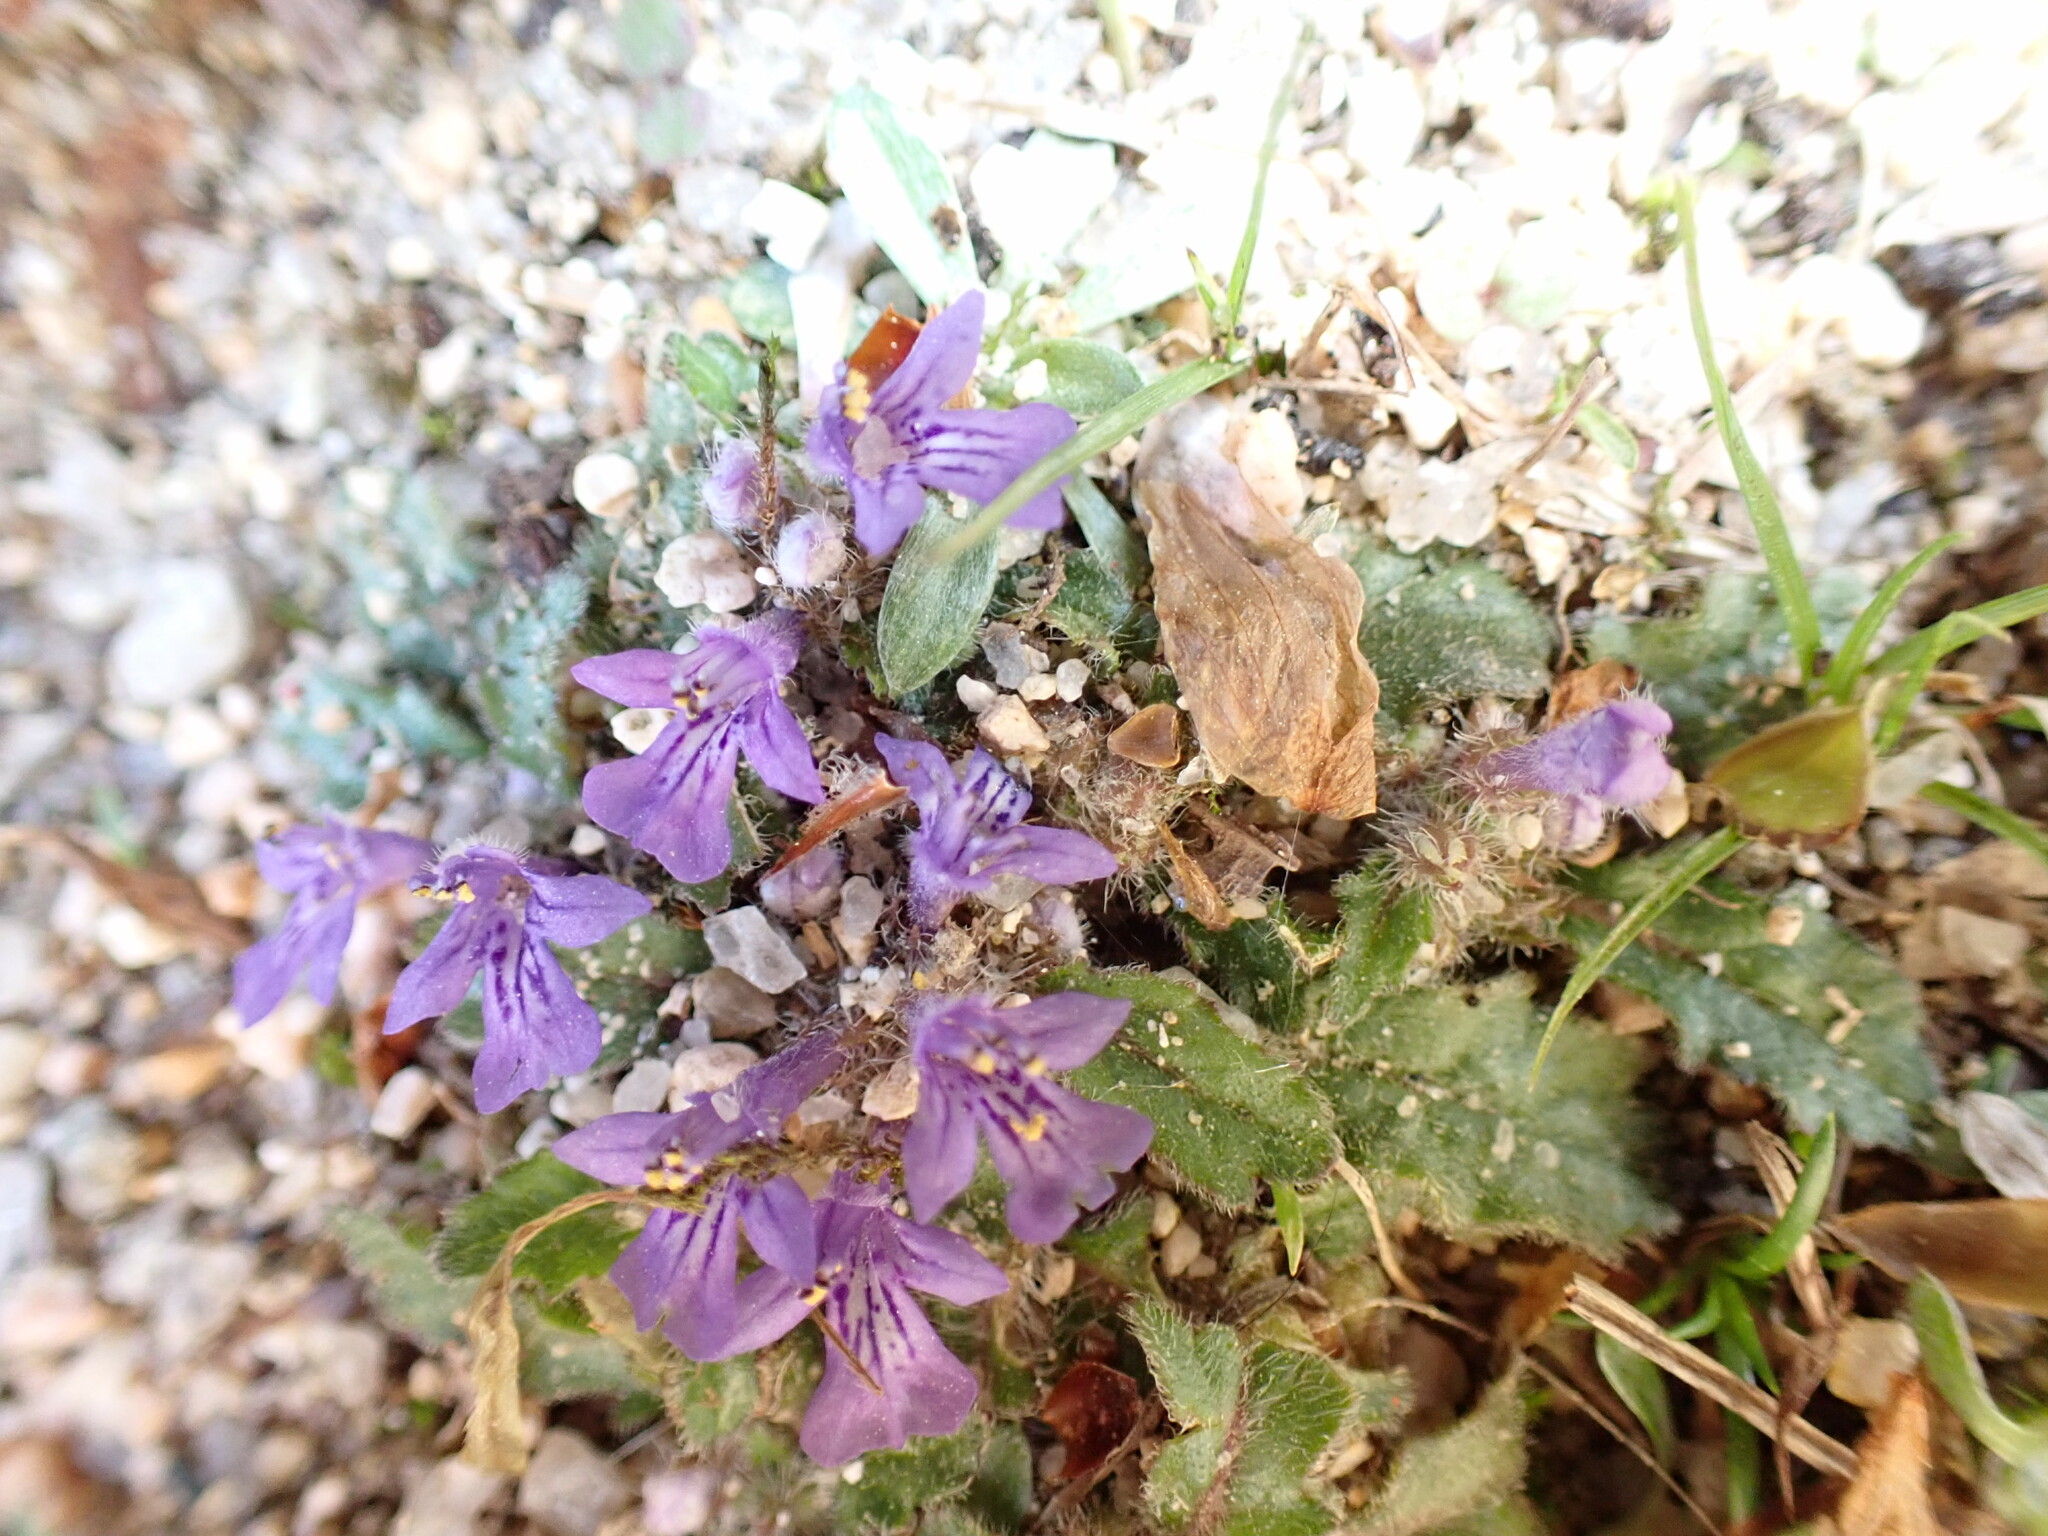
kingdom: Plantae
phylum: Tracheophyta
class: Magnoliopsida
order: Lamiales
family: Lamiaceae
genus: Ajuga
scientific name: Ajuga decumbens
